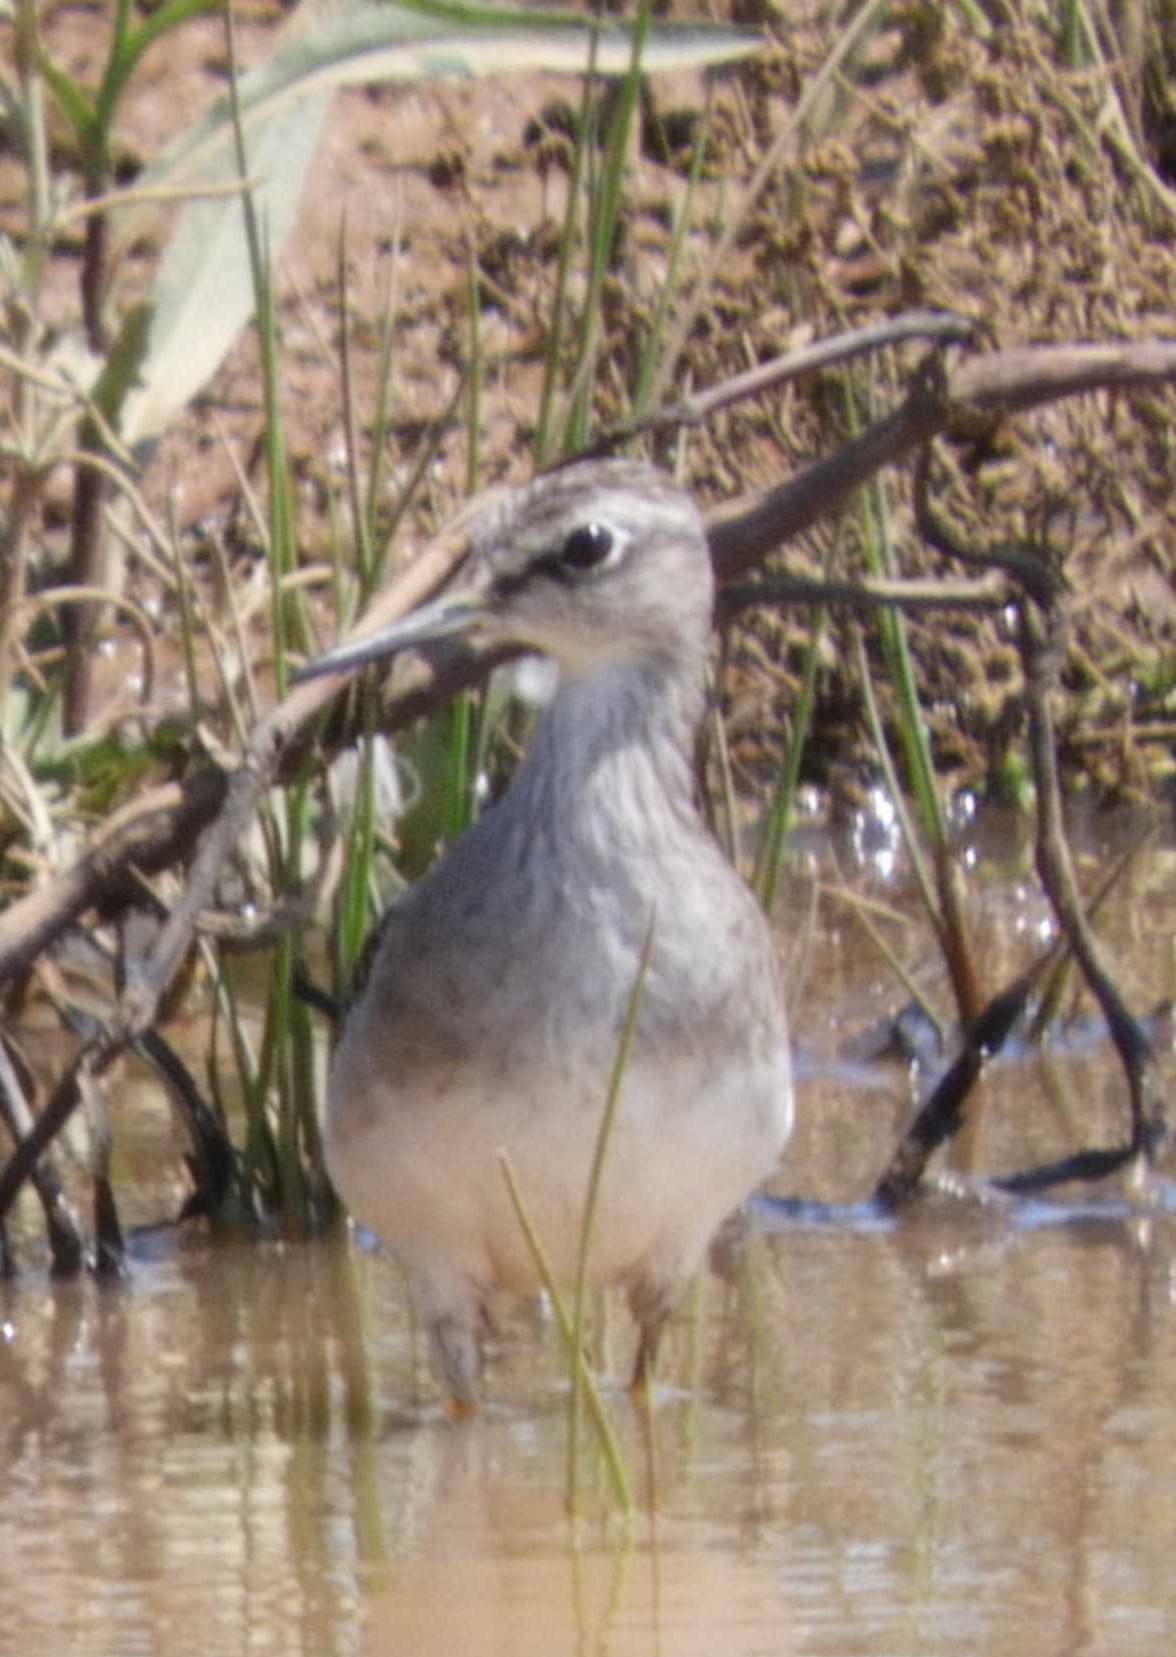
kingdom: Animalia
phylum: Chordata
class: Aves
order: Charadriiformes
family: Scolopacidae
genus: Tringa
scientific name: Tringa glareola
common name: Wood sandpiper
